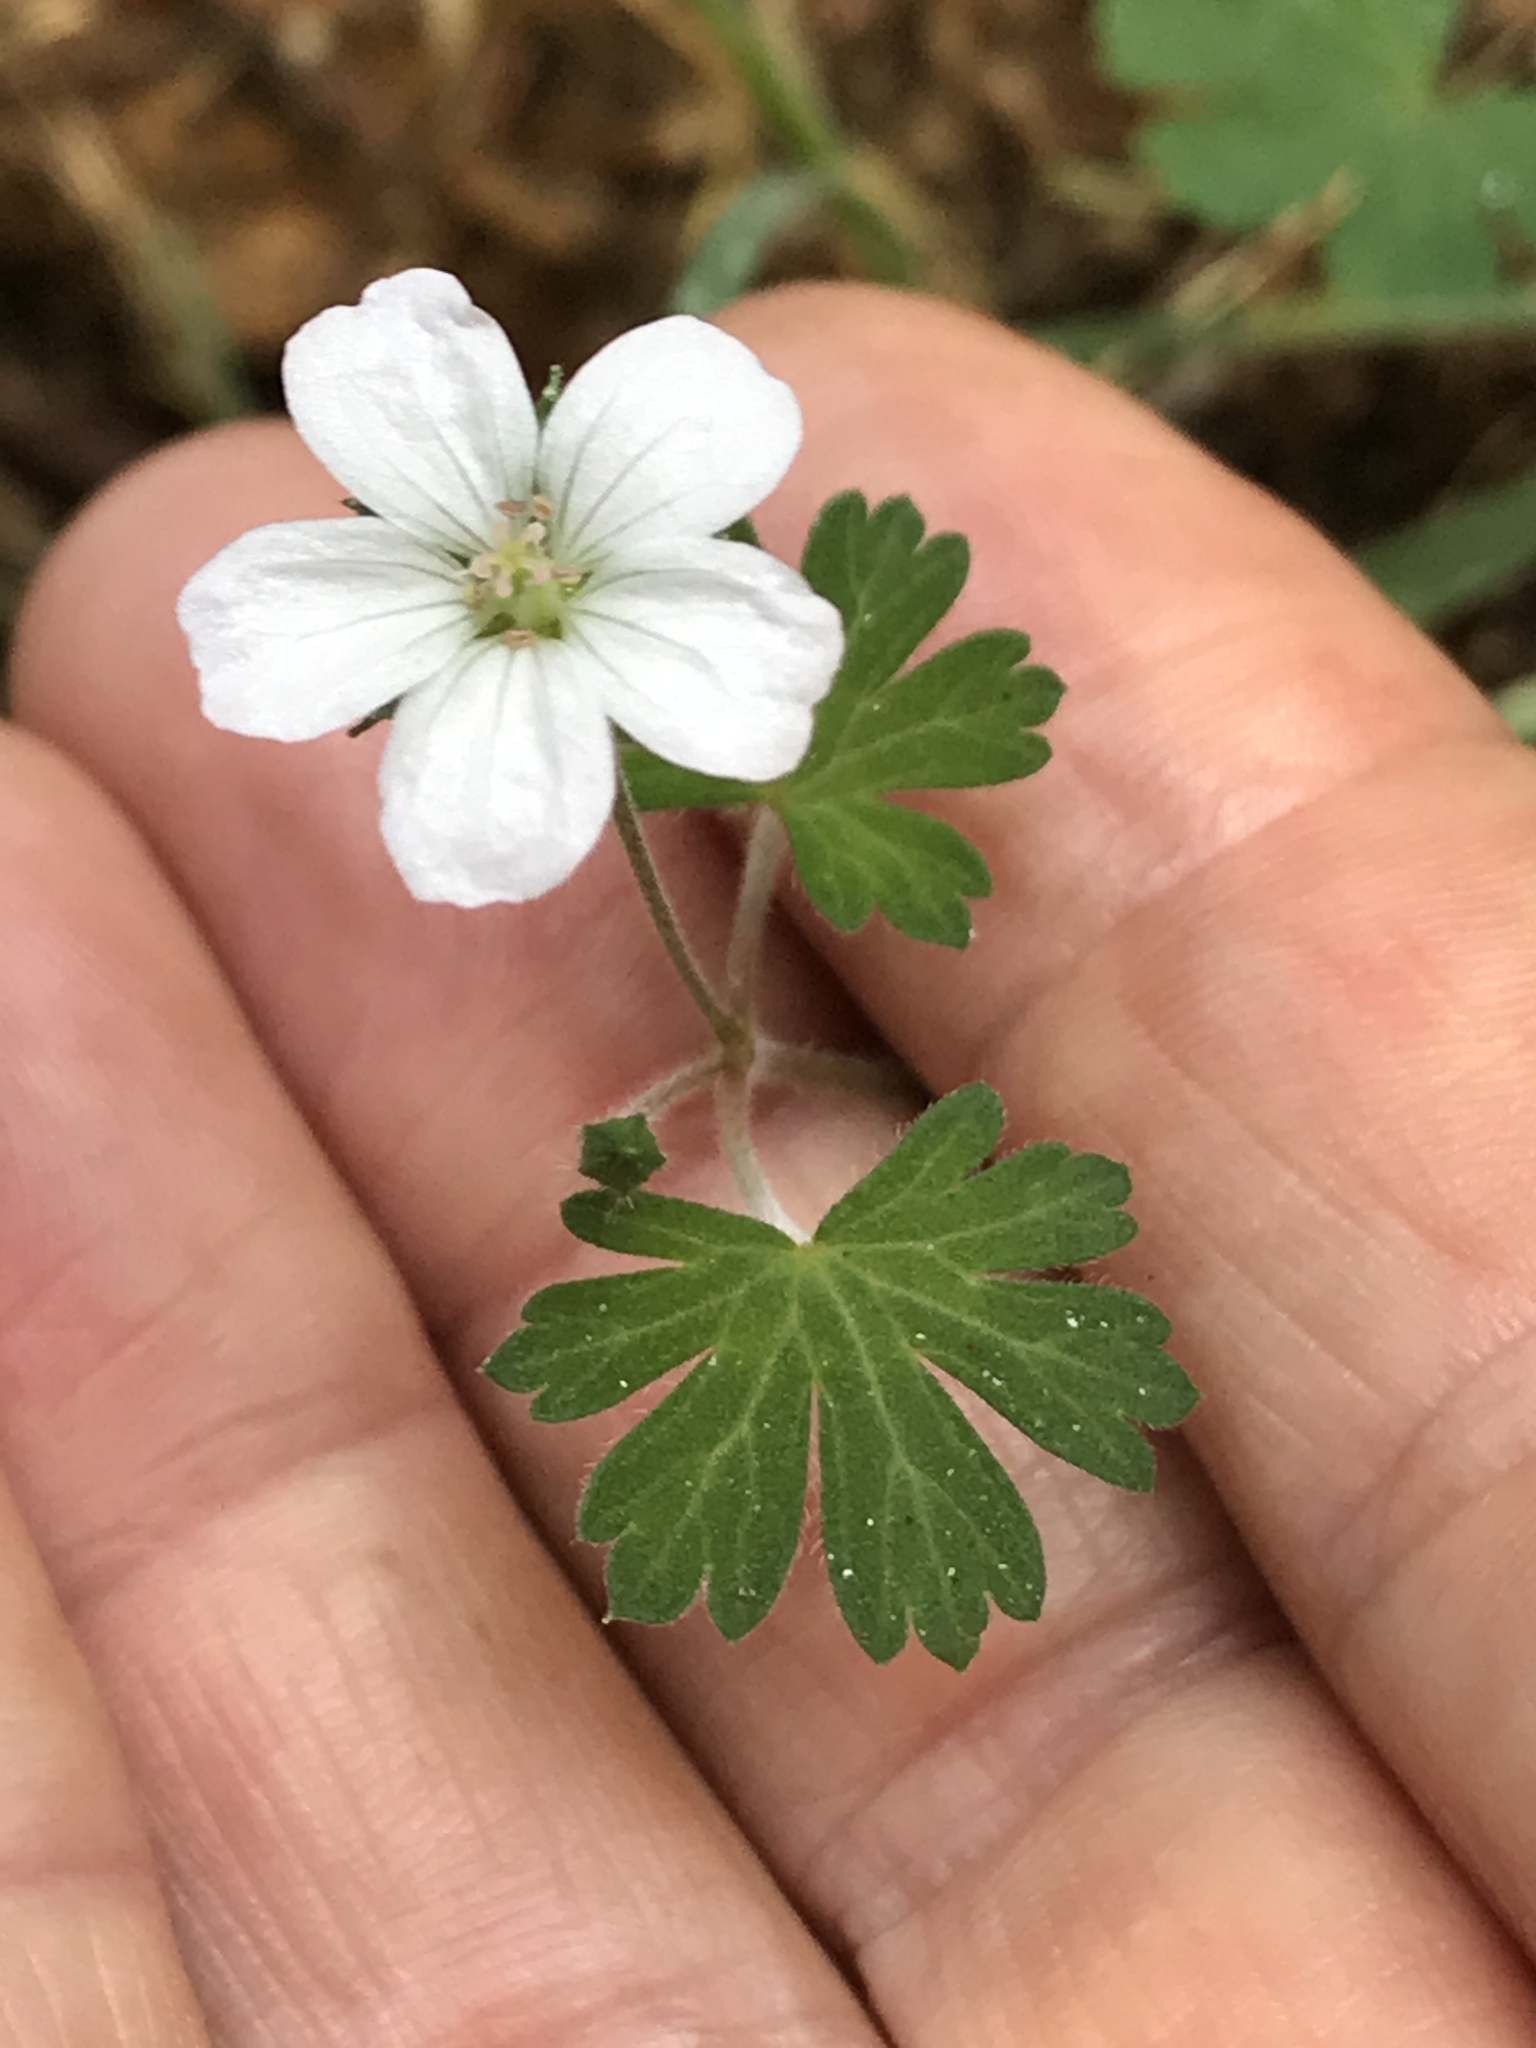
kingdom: Plantae
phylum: Tracheophyta
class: Magnoliopsida
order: Geraniales
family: Geraniaceae
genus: Geranium
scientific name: Geranium potentilloides
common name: Cinquefoil geranium
